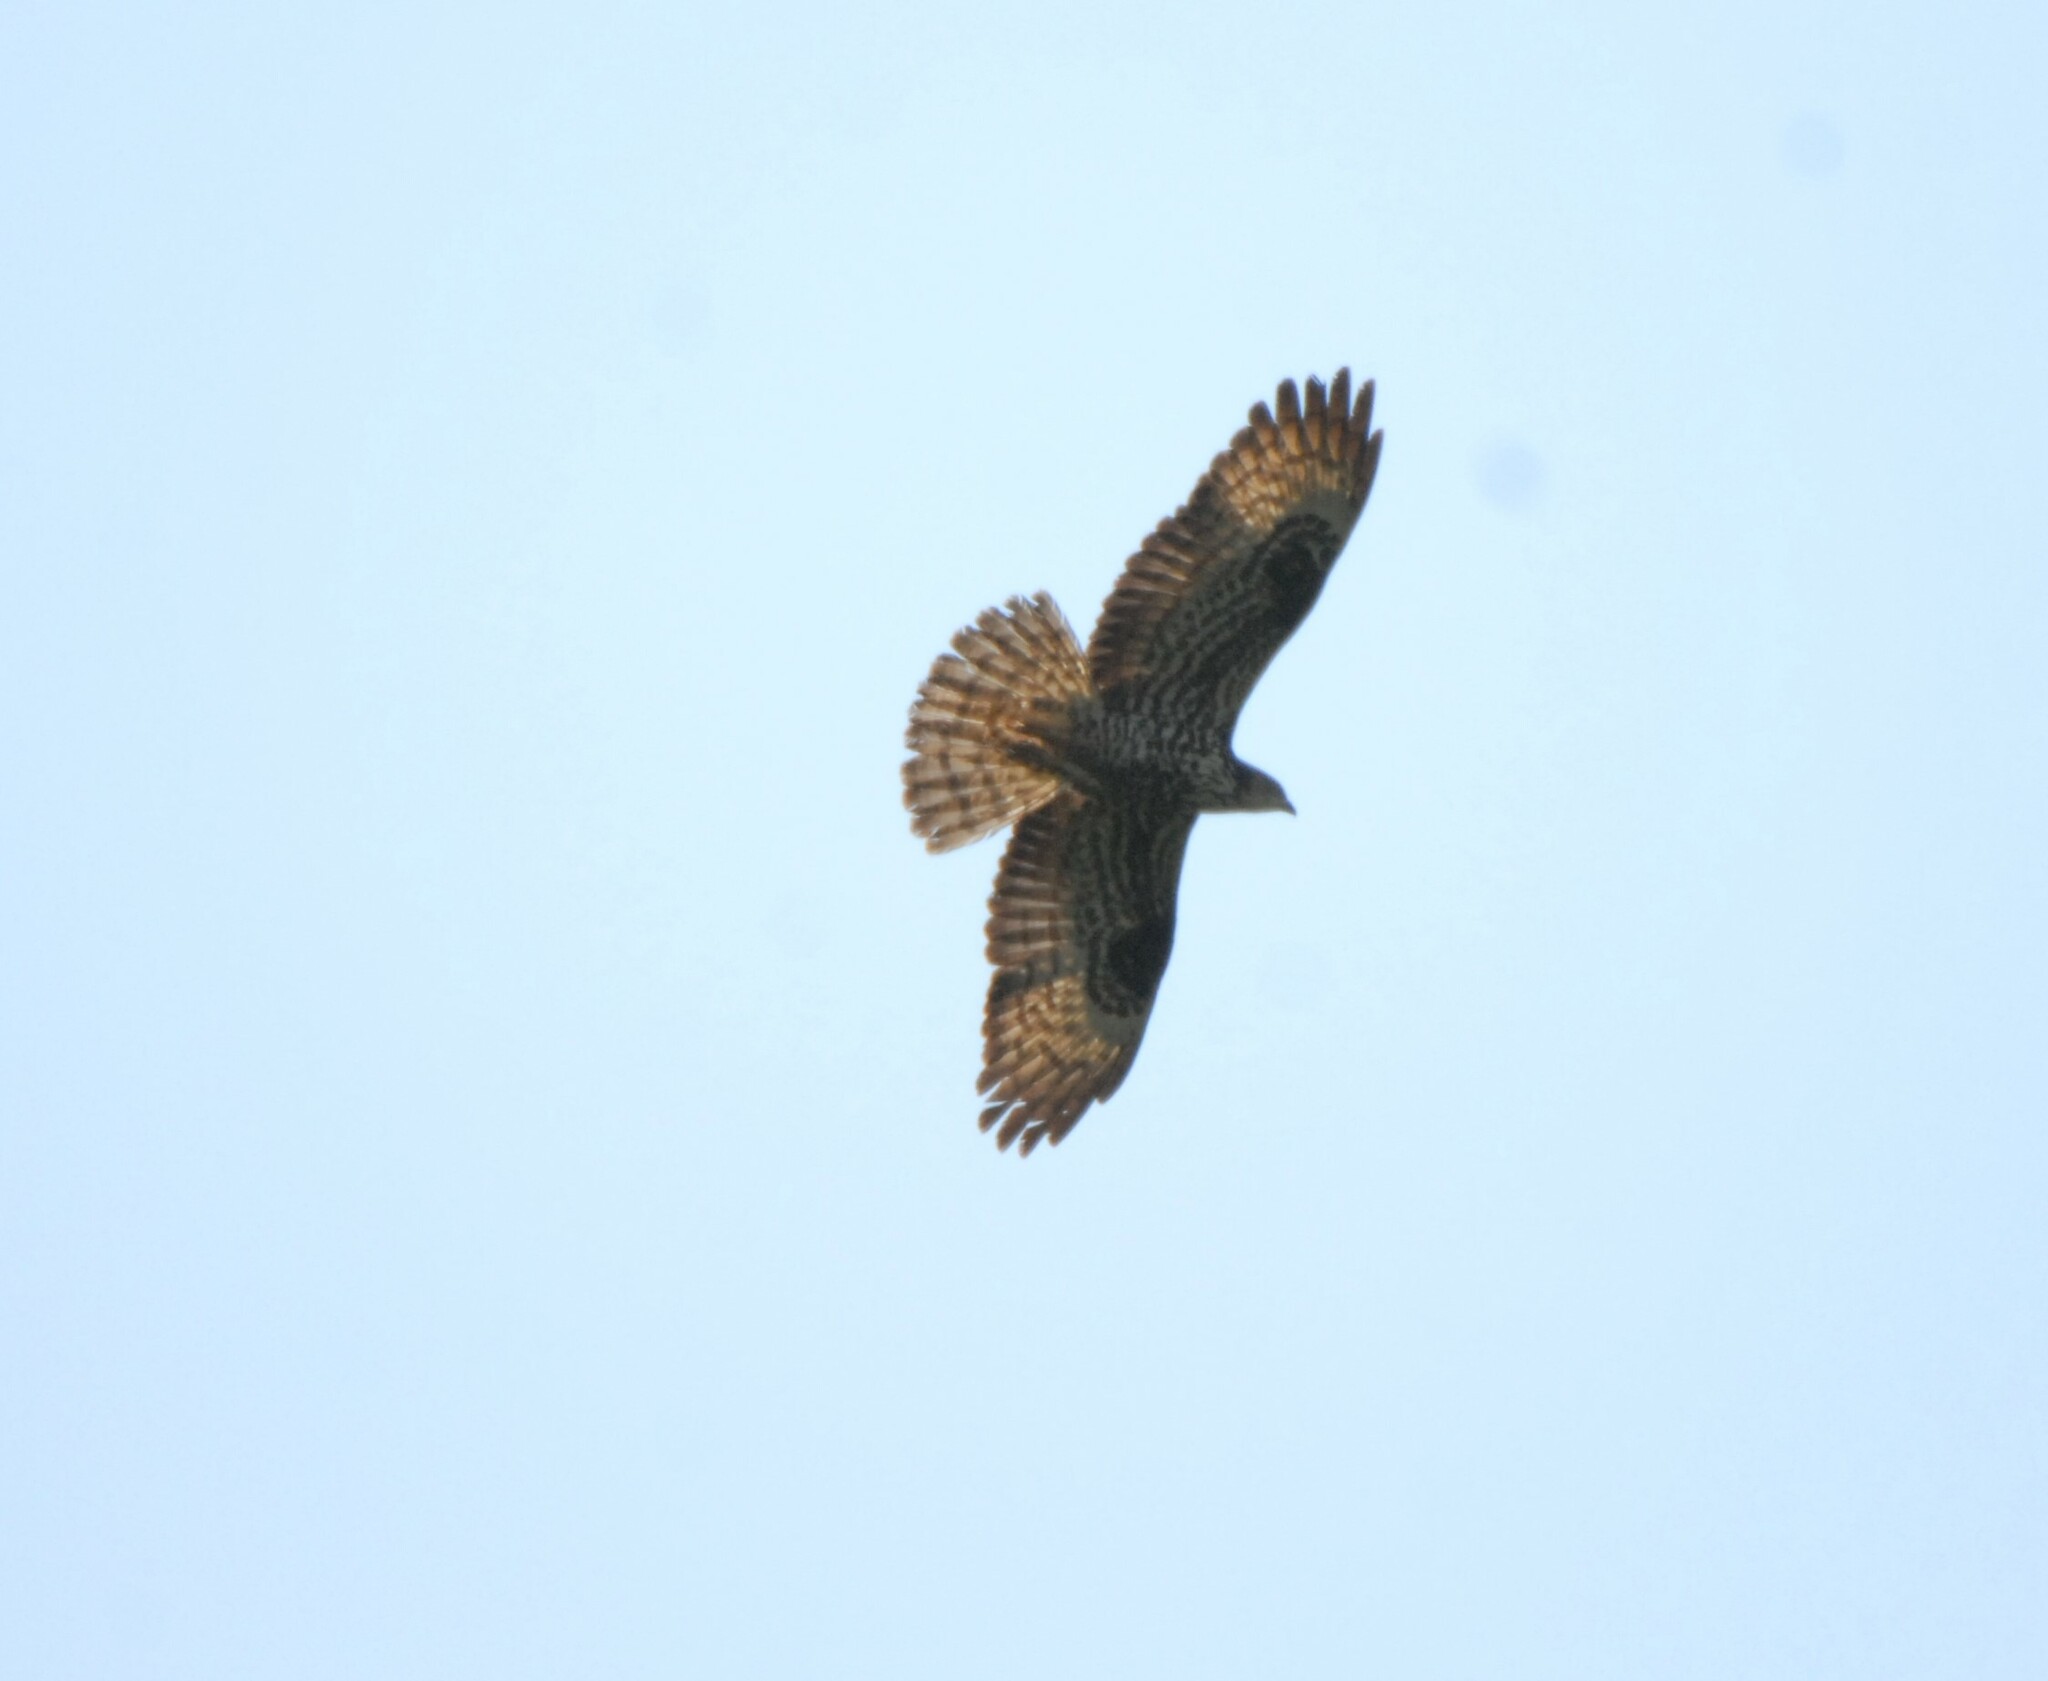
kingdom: Animalia
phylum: Chordata
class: Aves
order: Accipitriformes
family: Accipitridae
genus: Pernis
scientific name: Pernis apivorus
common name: European honey buzzard
